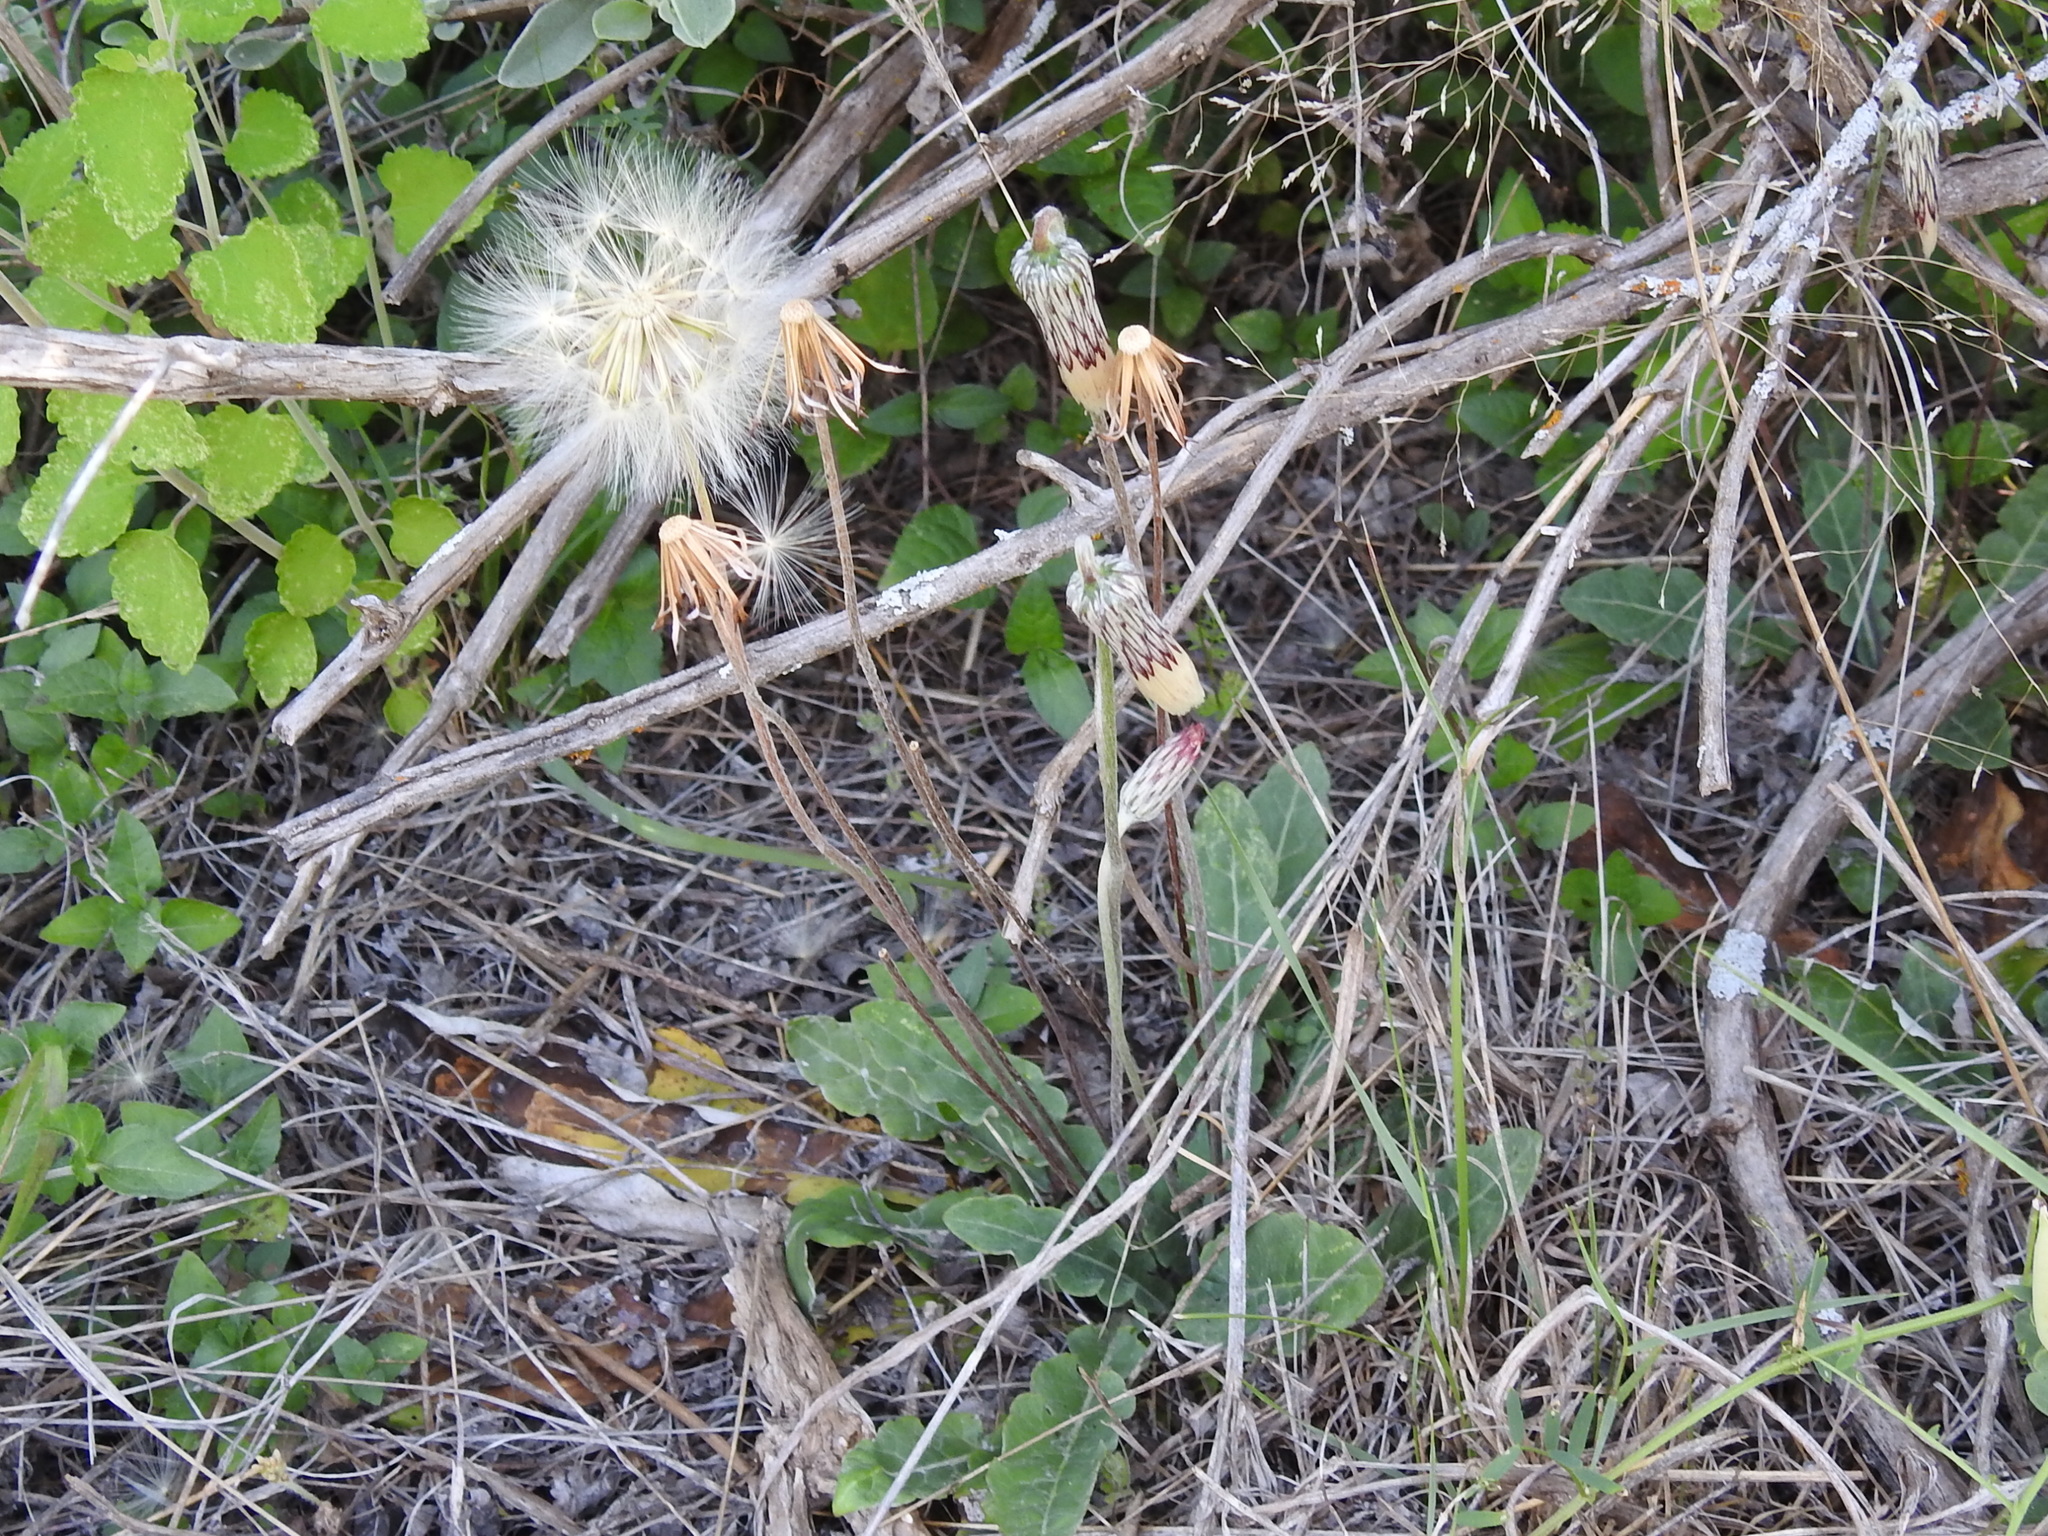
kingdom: Plantae
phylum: Tracheophyta
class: Magnoliopsida
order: Asterales
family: Asteraceae
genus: Chaptalia
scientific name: Chaptalia texana
